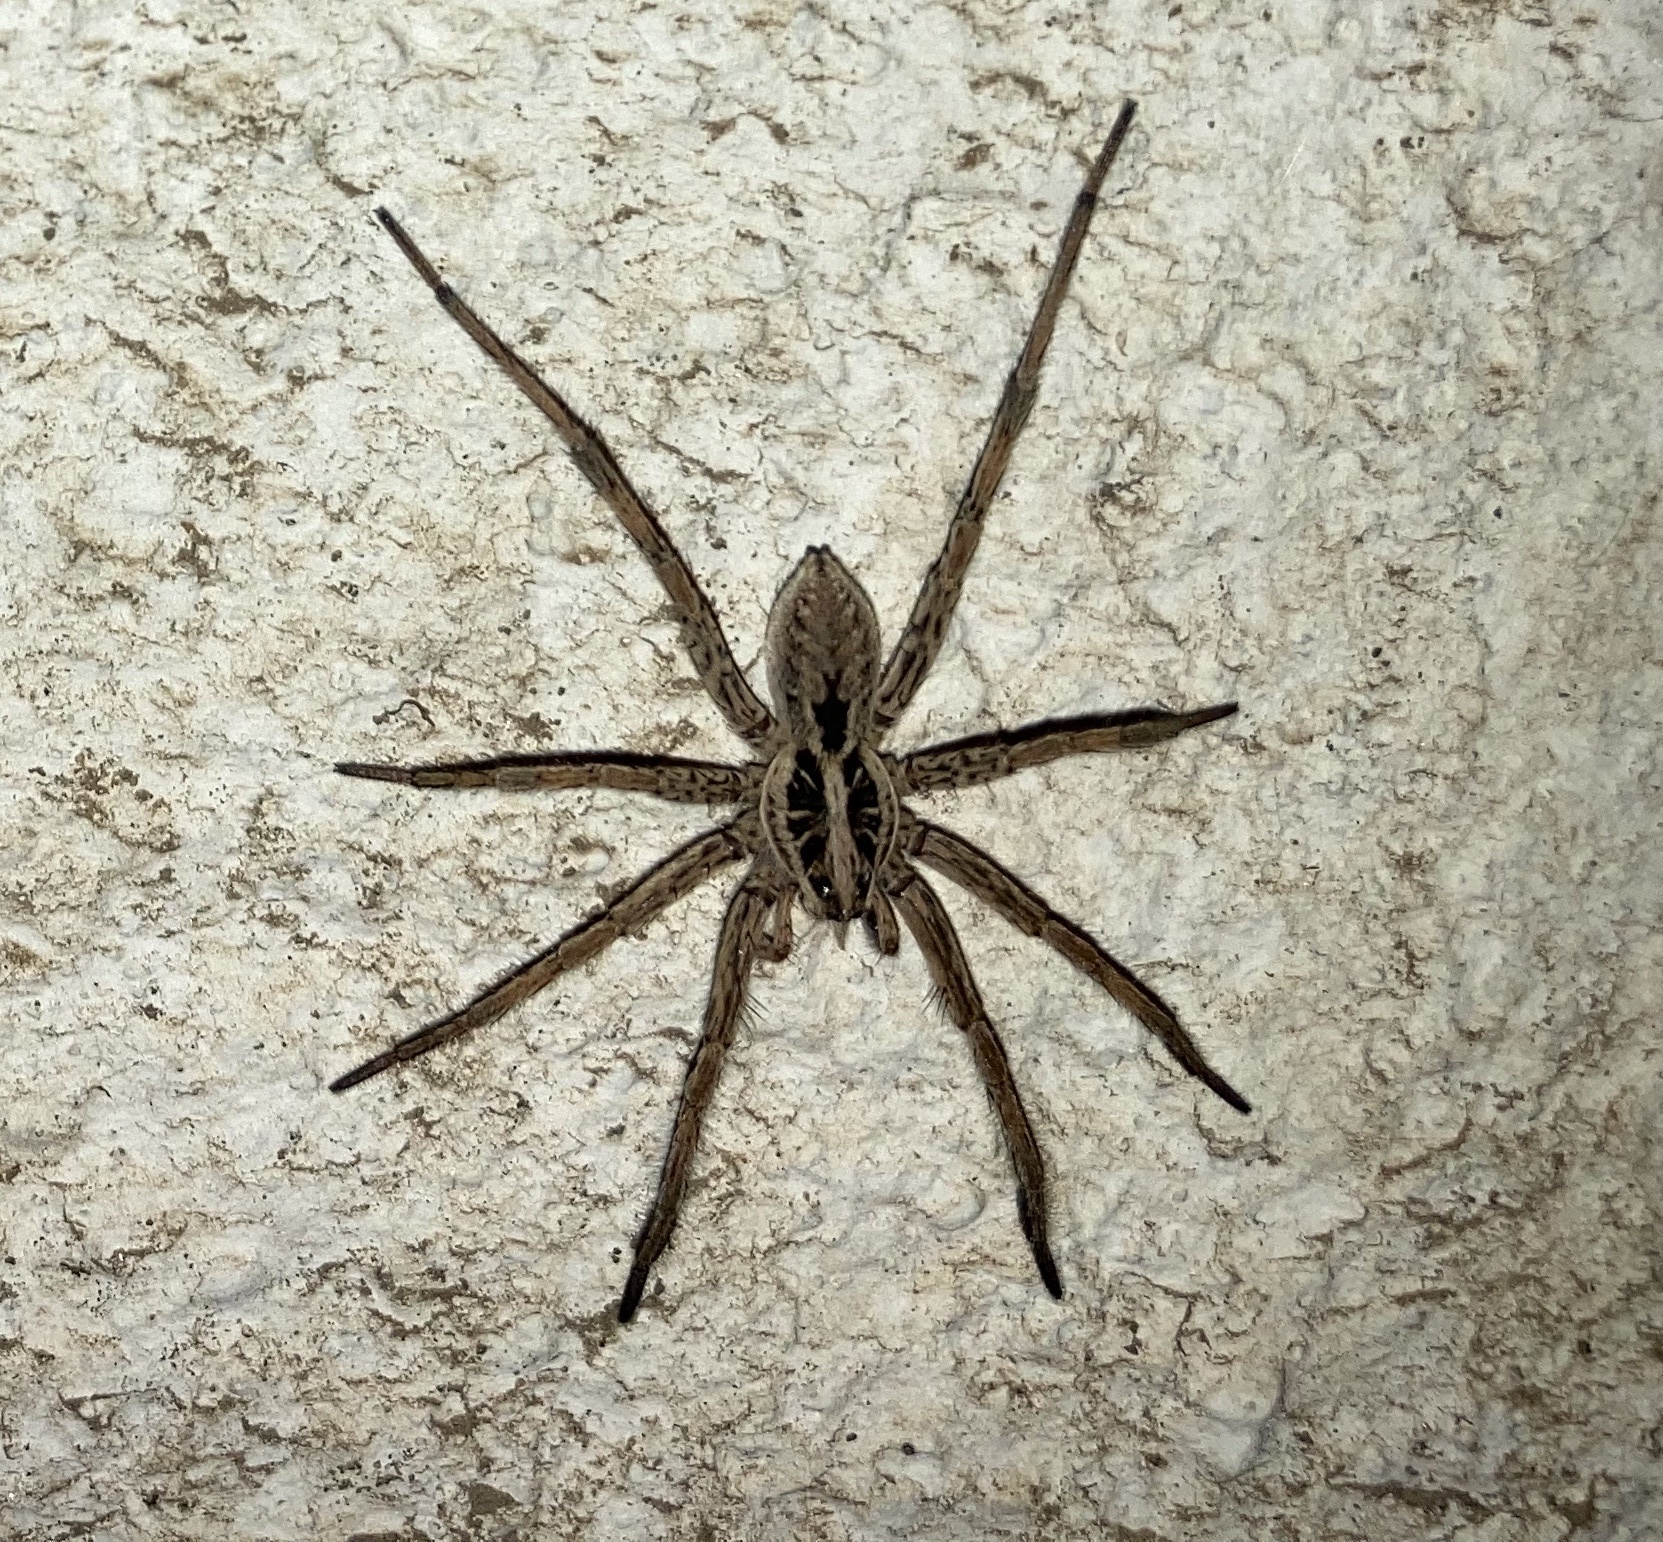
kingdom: Animalia
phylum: Arthropoda
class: Arachnida
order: Araneae
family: Lycosidae
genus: Hogna
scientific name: Hogna radiata
